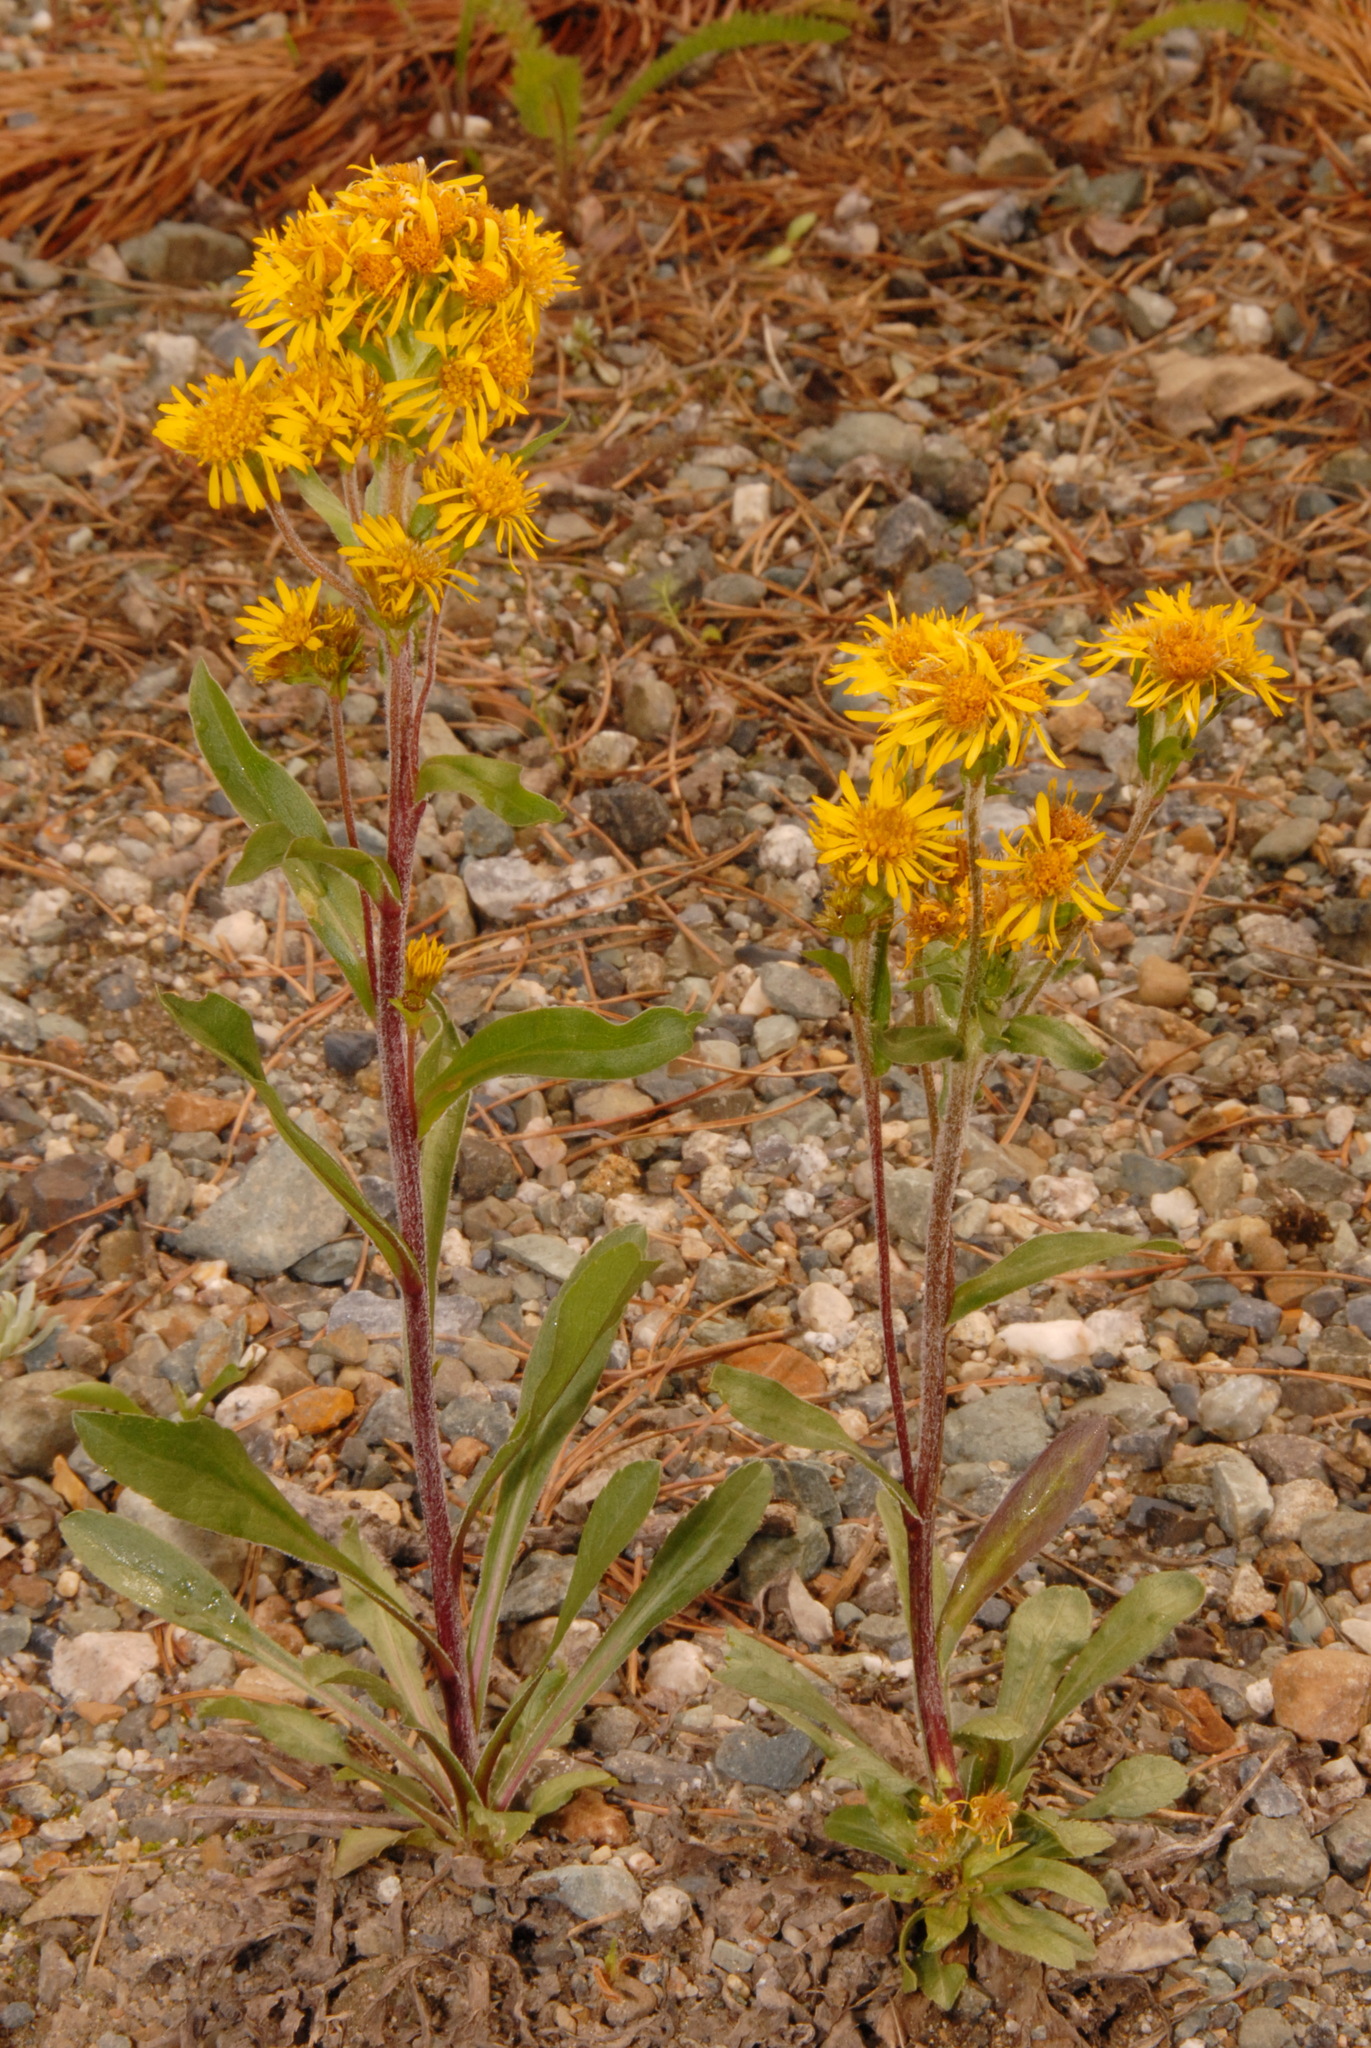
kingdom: Plantae
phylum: Tracheophyta
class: Magnoliopsida
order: Asterales
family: Asteraceae
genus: Solidago
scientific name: Solidago multiradiata
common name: Northern goldenrod
